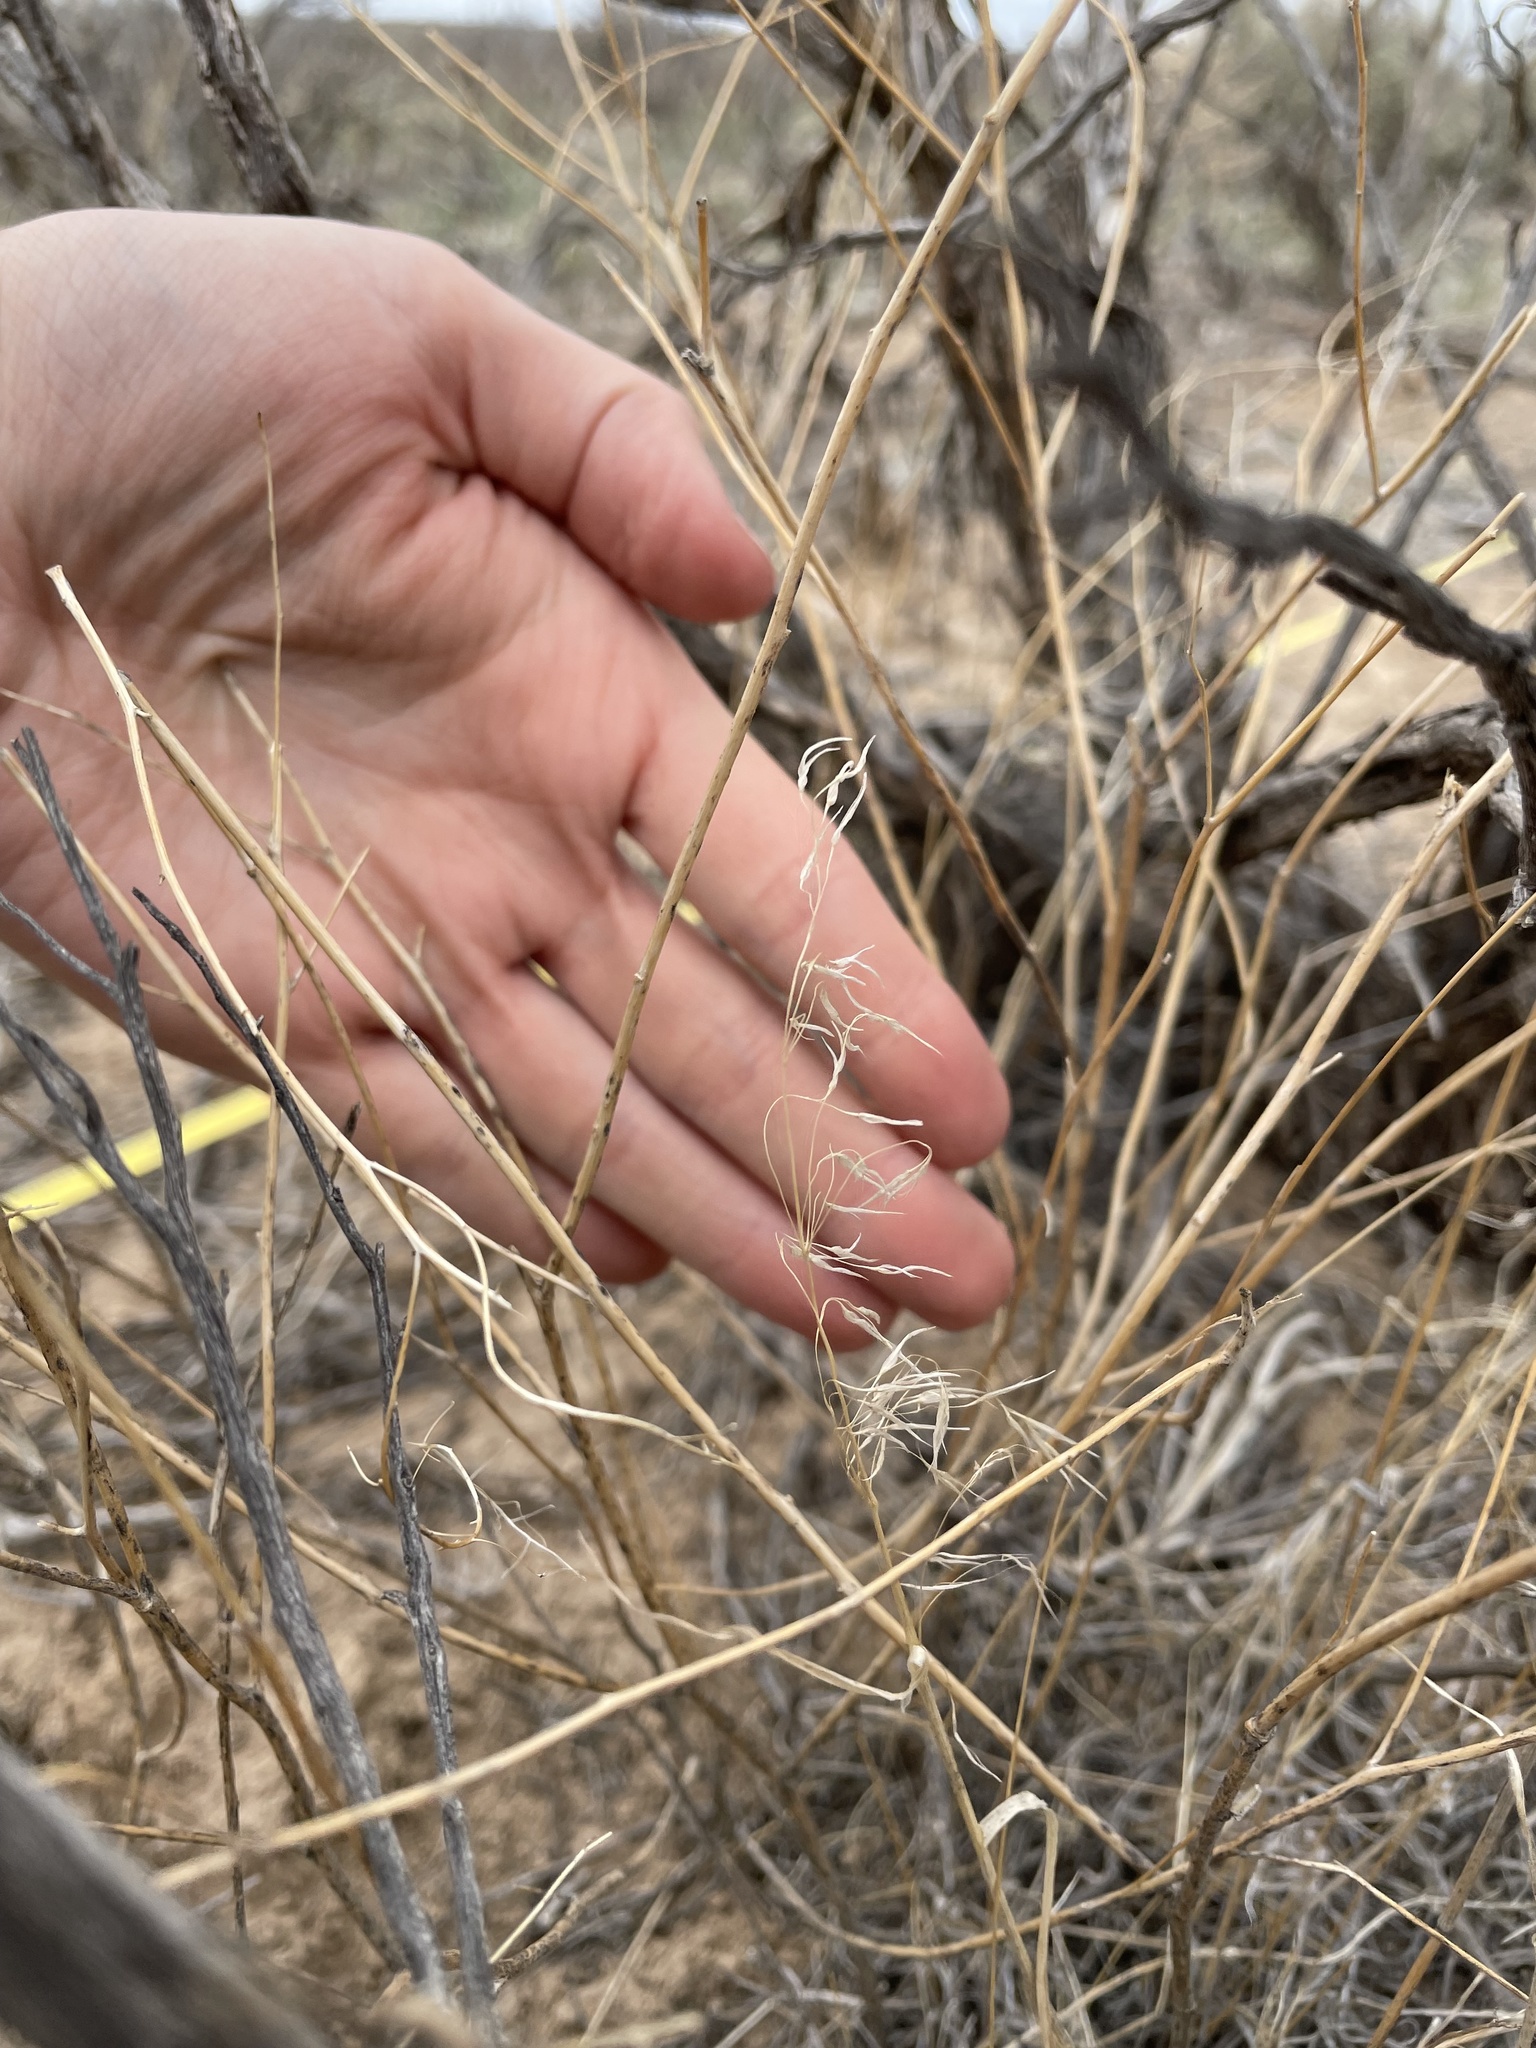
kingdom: Plantae
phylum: Tracheophyta
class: Liliopsida
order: Poales
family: Poaceae
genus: Eriocoma
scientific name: Eriocoma hymenoides
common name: Indian mountain ricegrass
